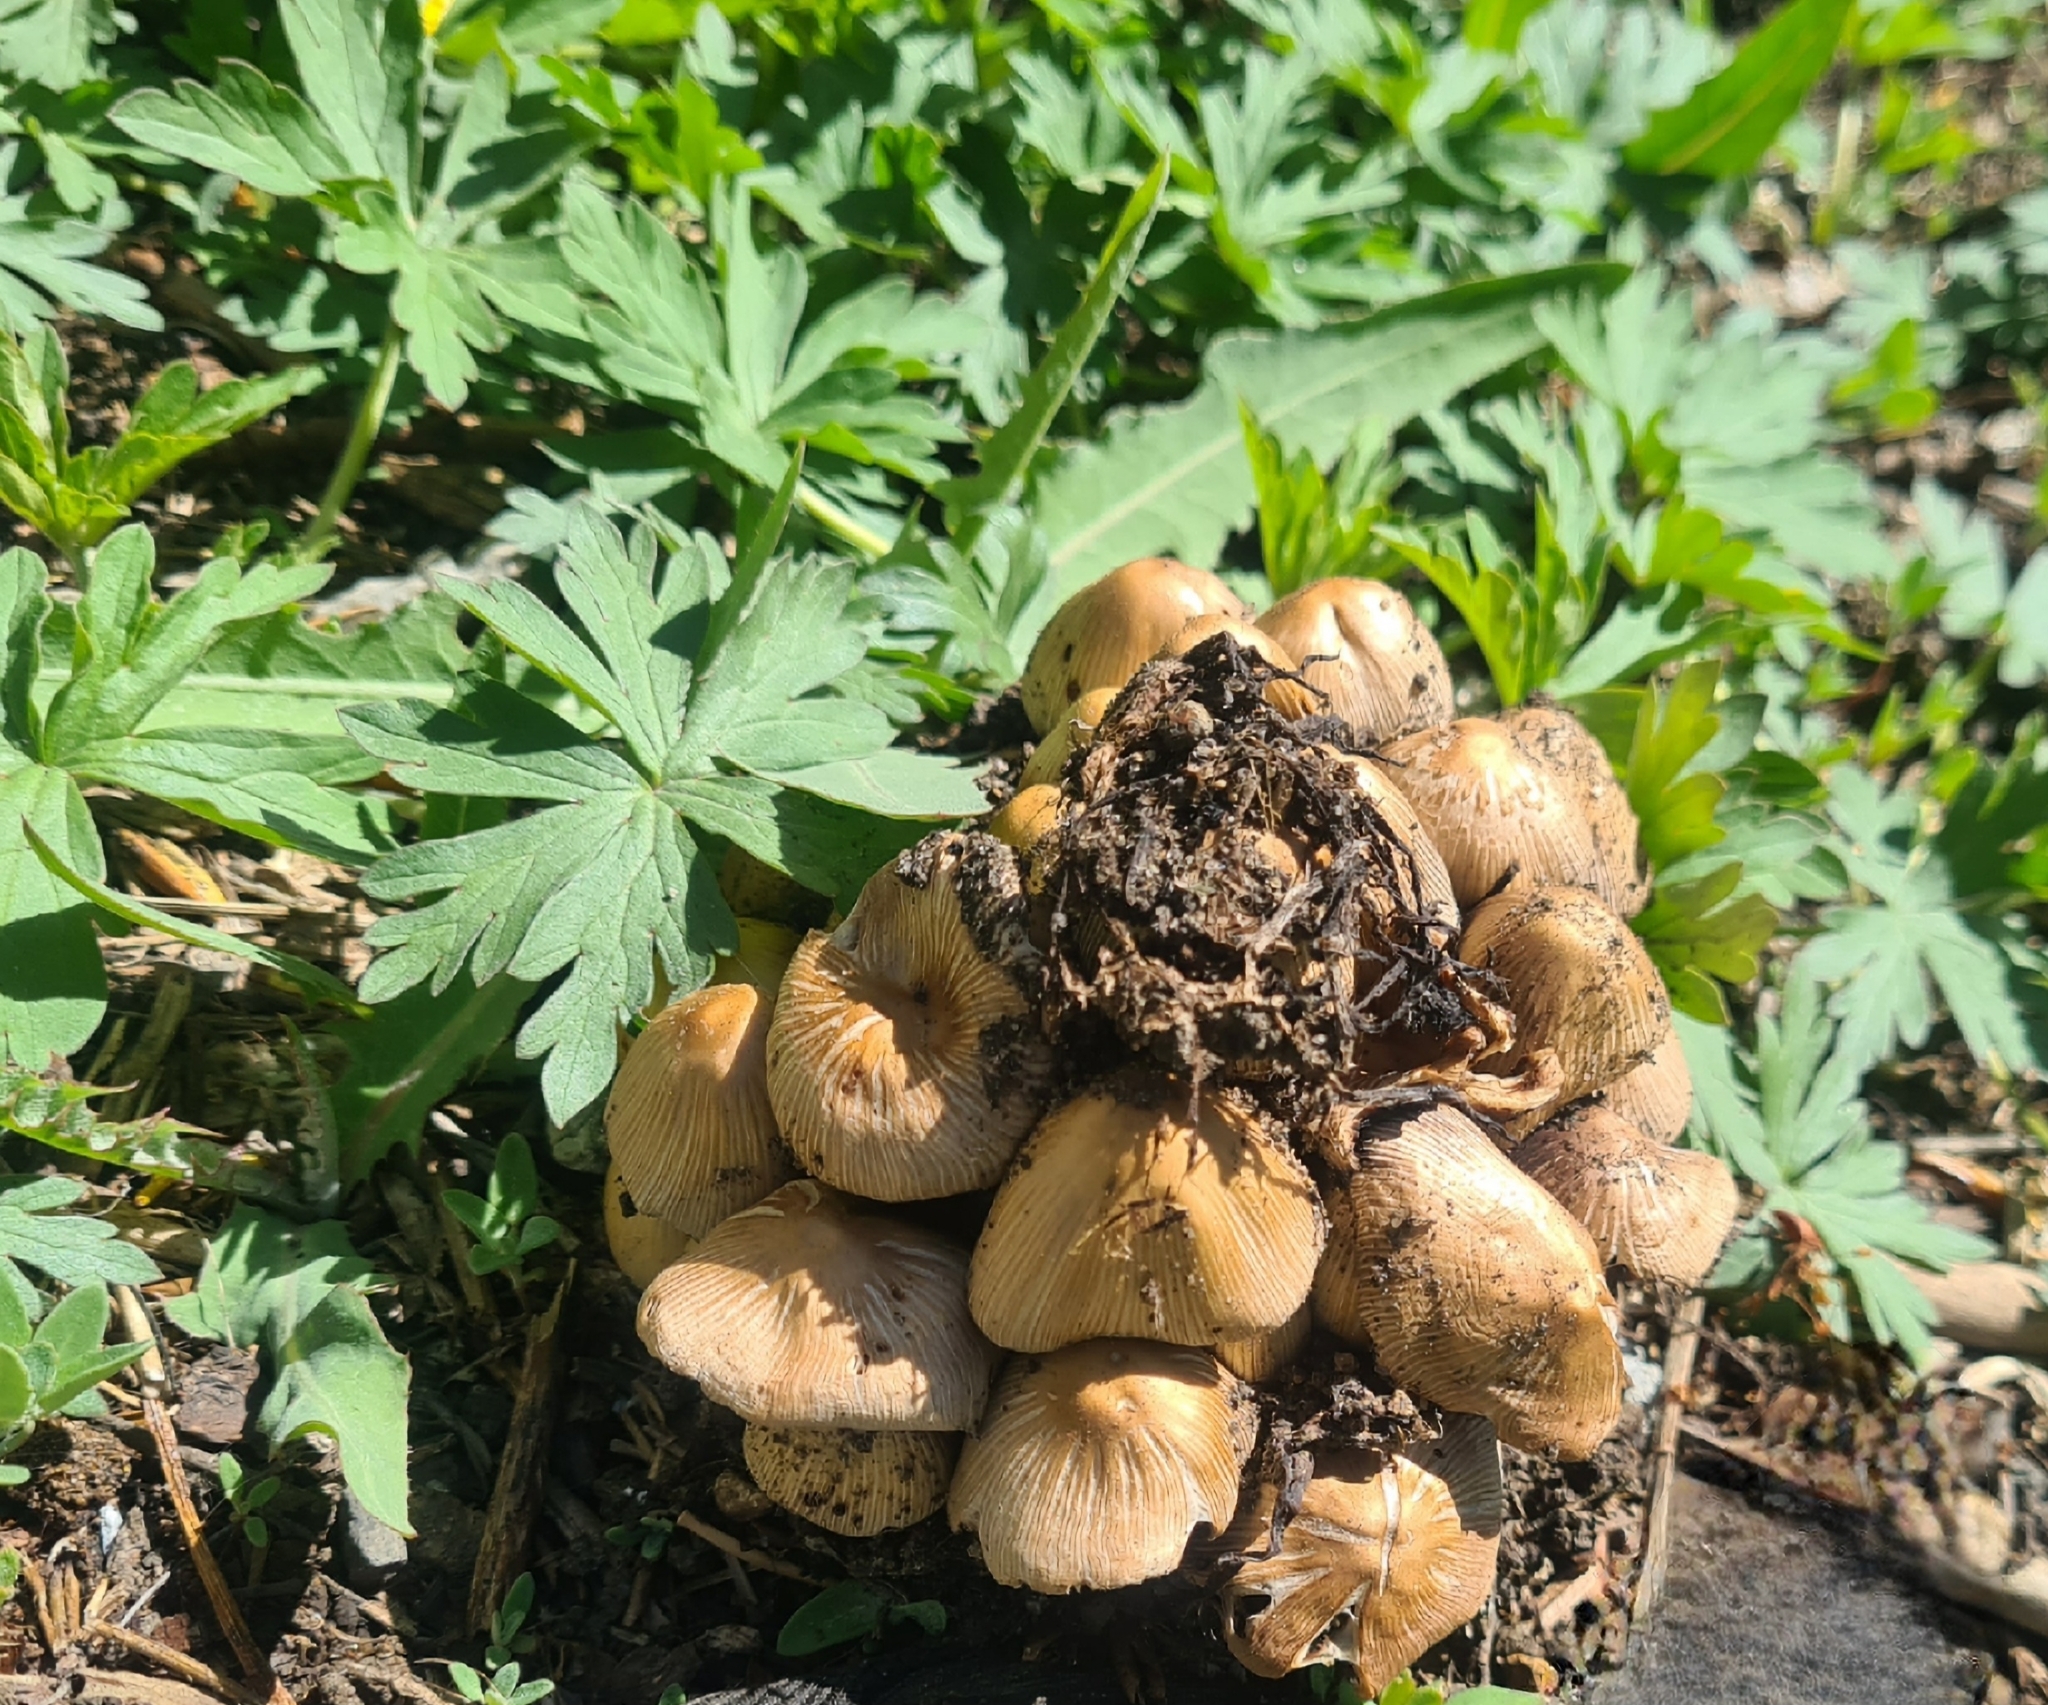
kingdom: Fungi
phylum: Basidiomycota
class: Agaricomycetes
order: Agaricales
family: Psathyrellaceae
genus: Coprinellus
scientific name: Coprinellus micaceus
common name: Glistening ink-cap
